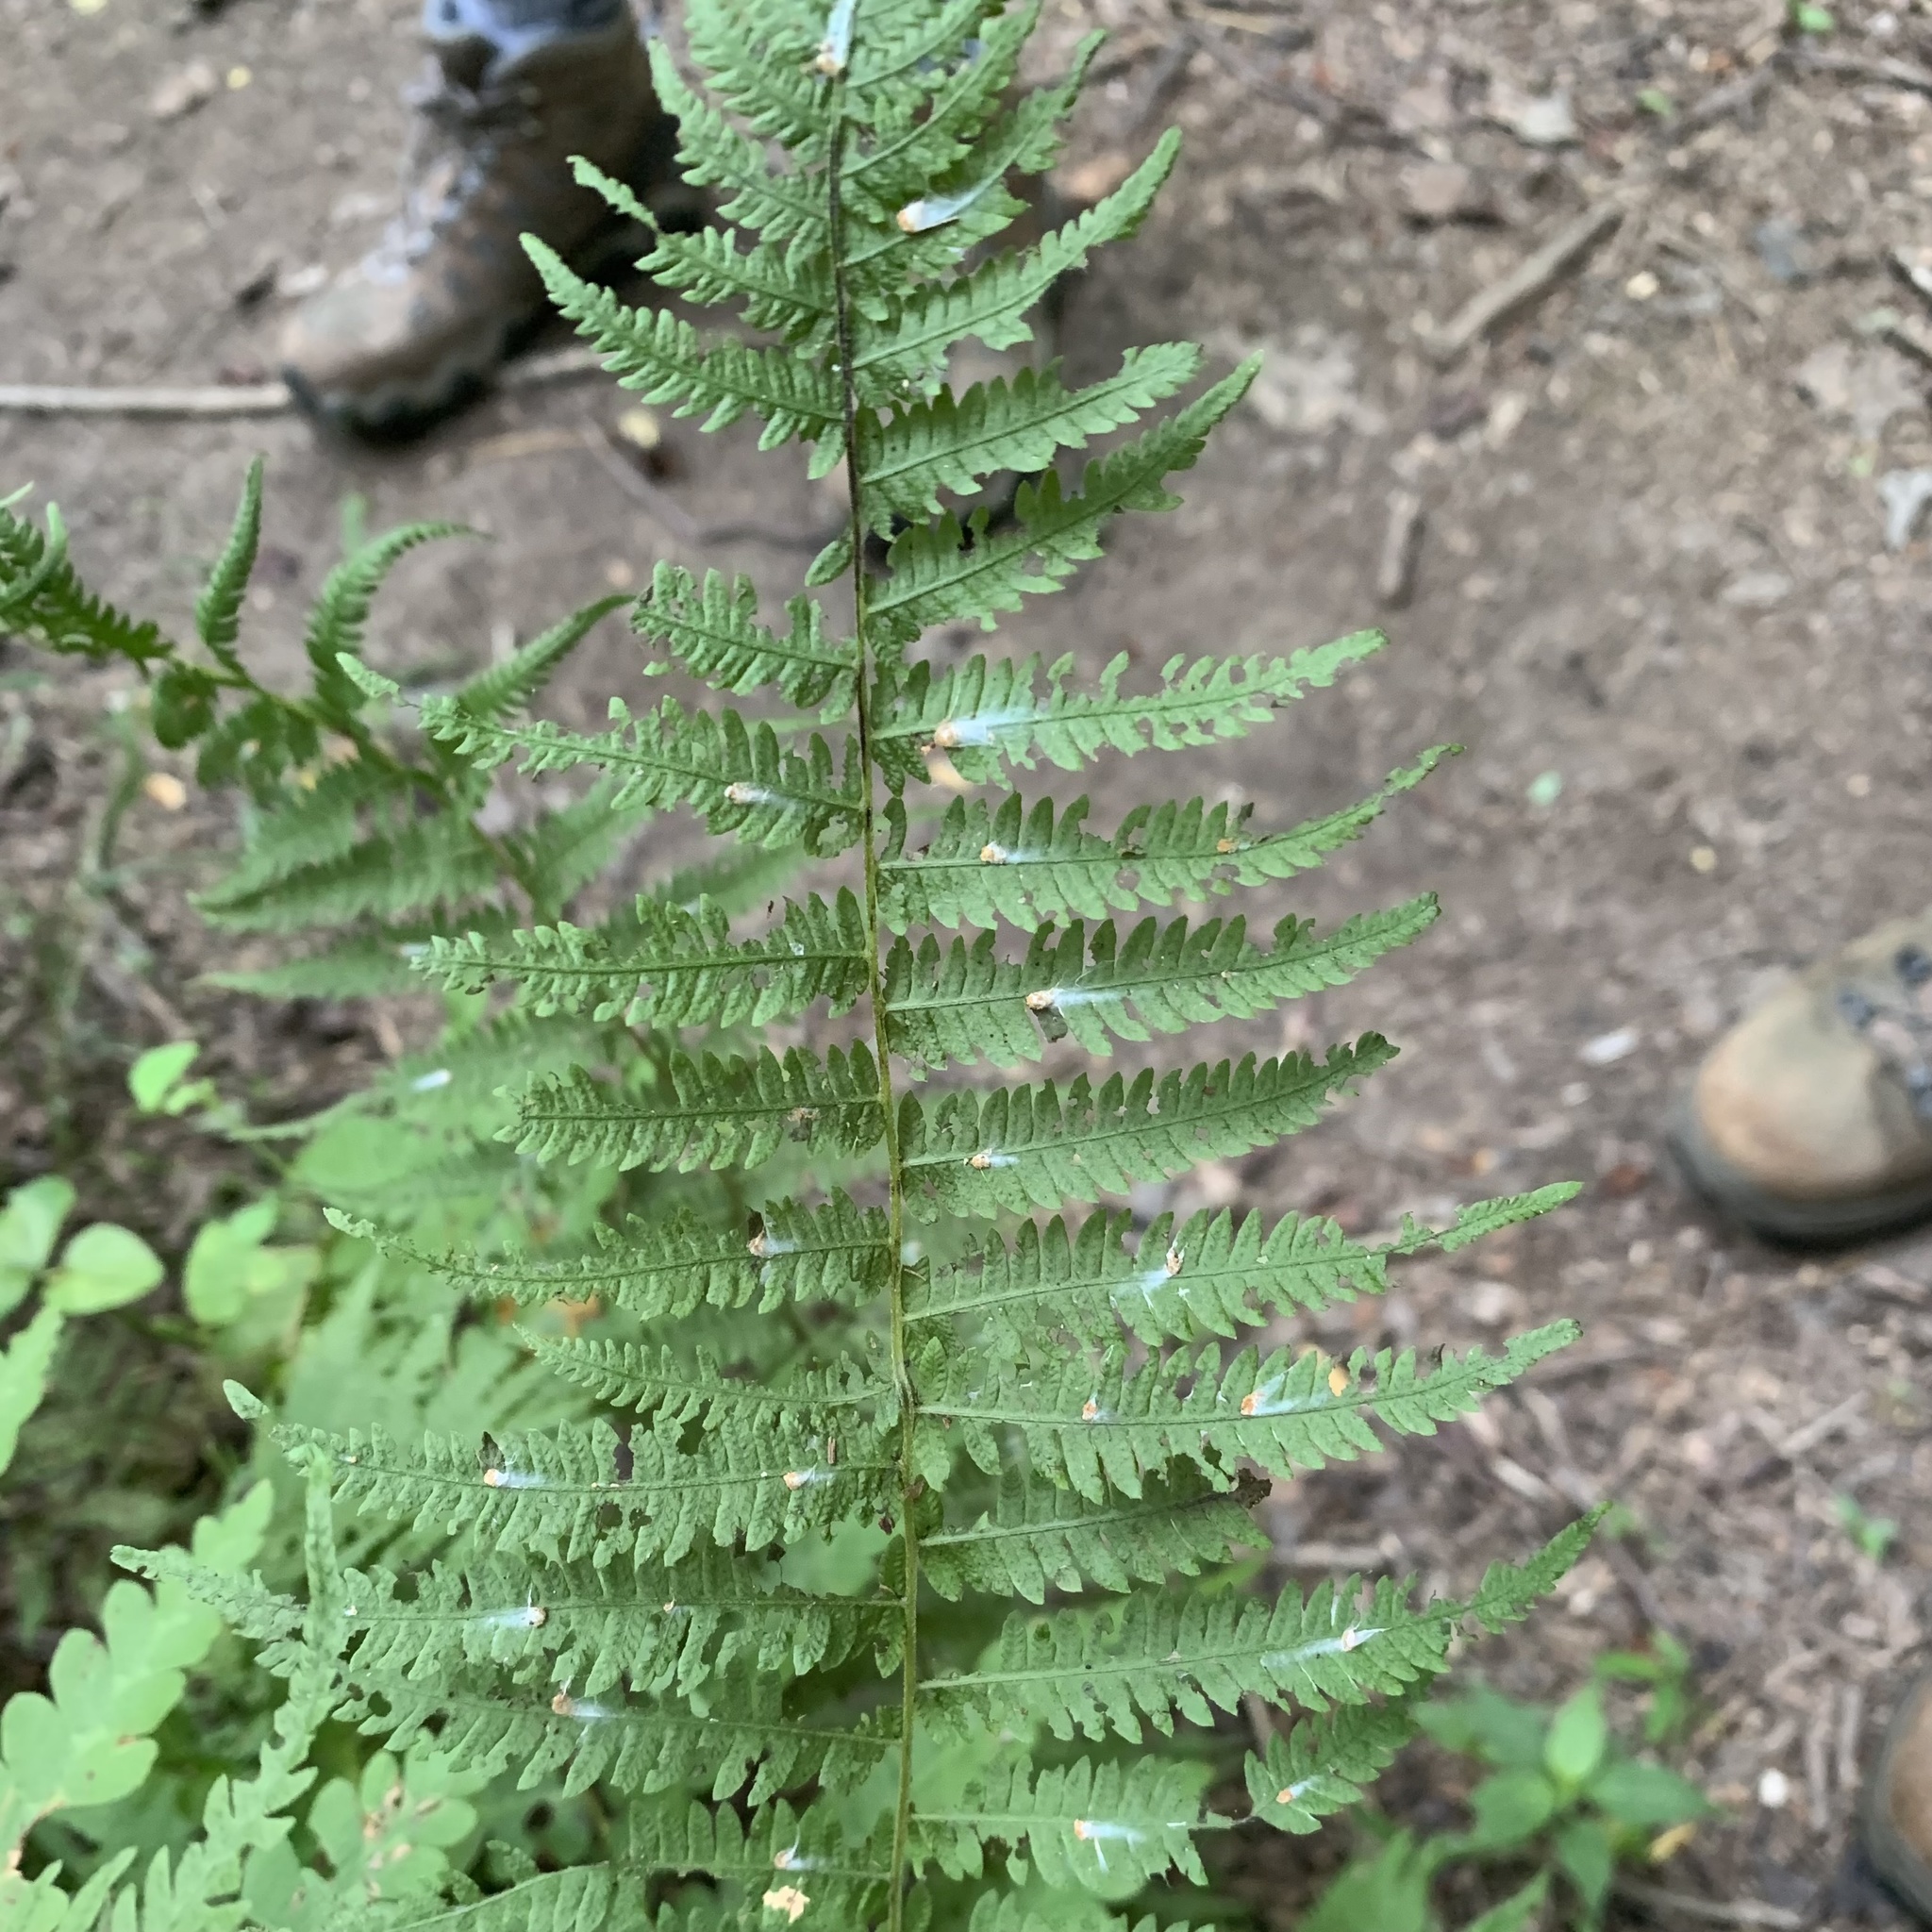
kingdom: Plantae
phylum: Tracheophyta
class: Polypodiopsida
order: Polypodiales
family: Athyriaceae
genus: Deparia
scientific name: Deparia acrostichoides
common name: Silver false spleenwort
